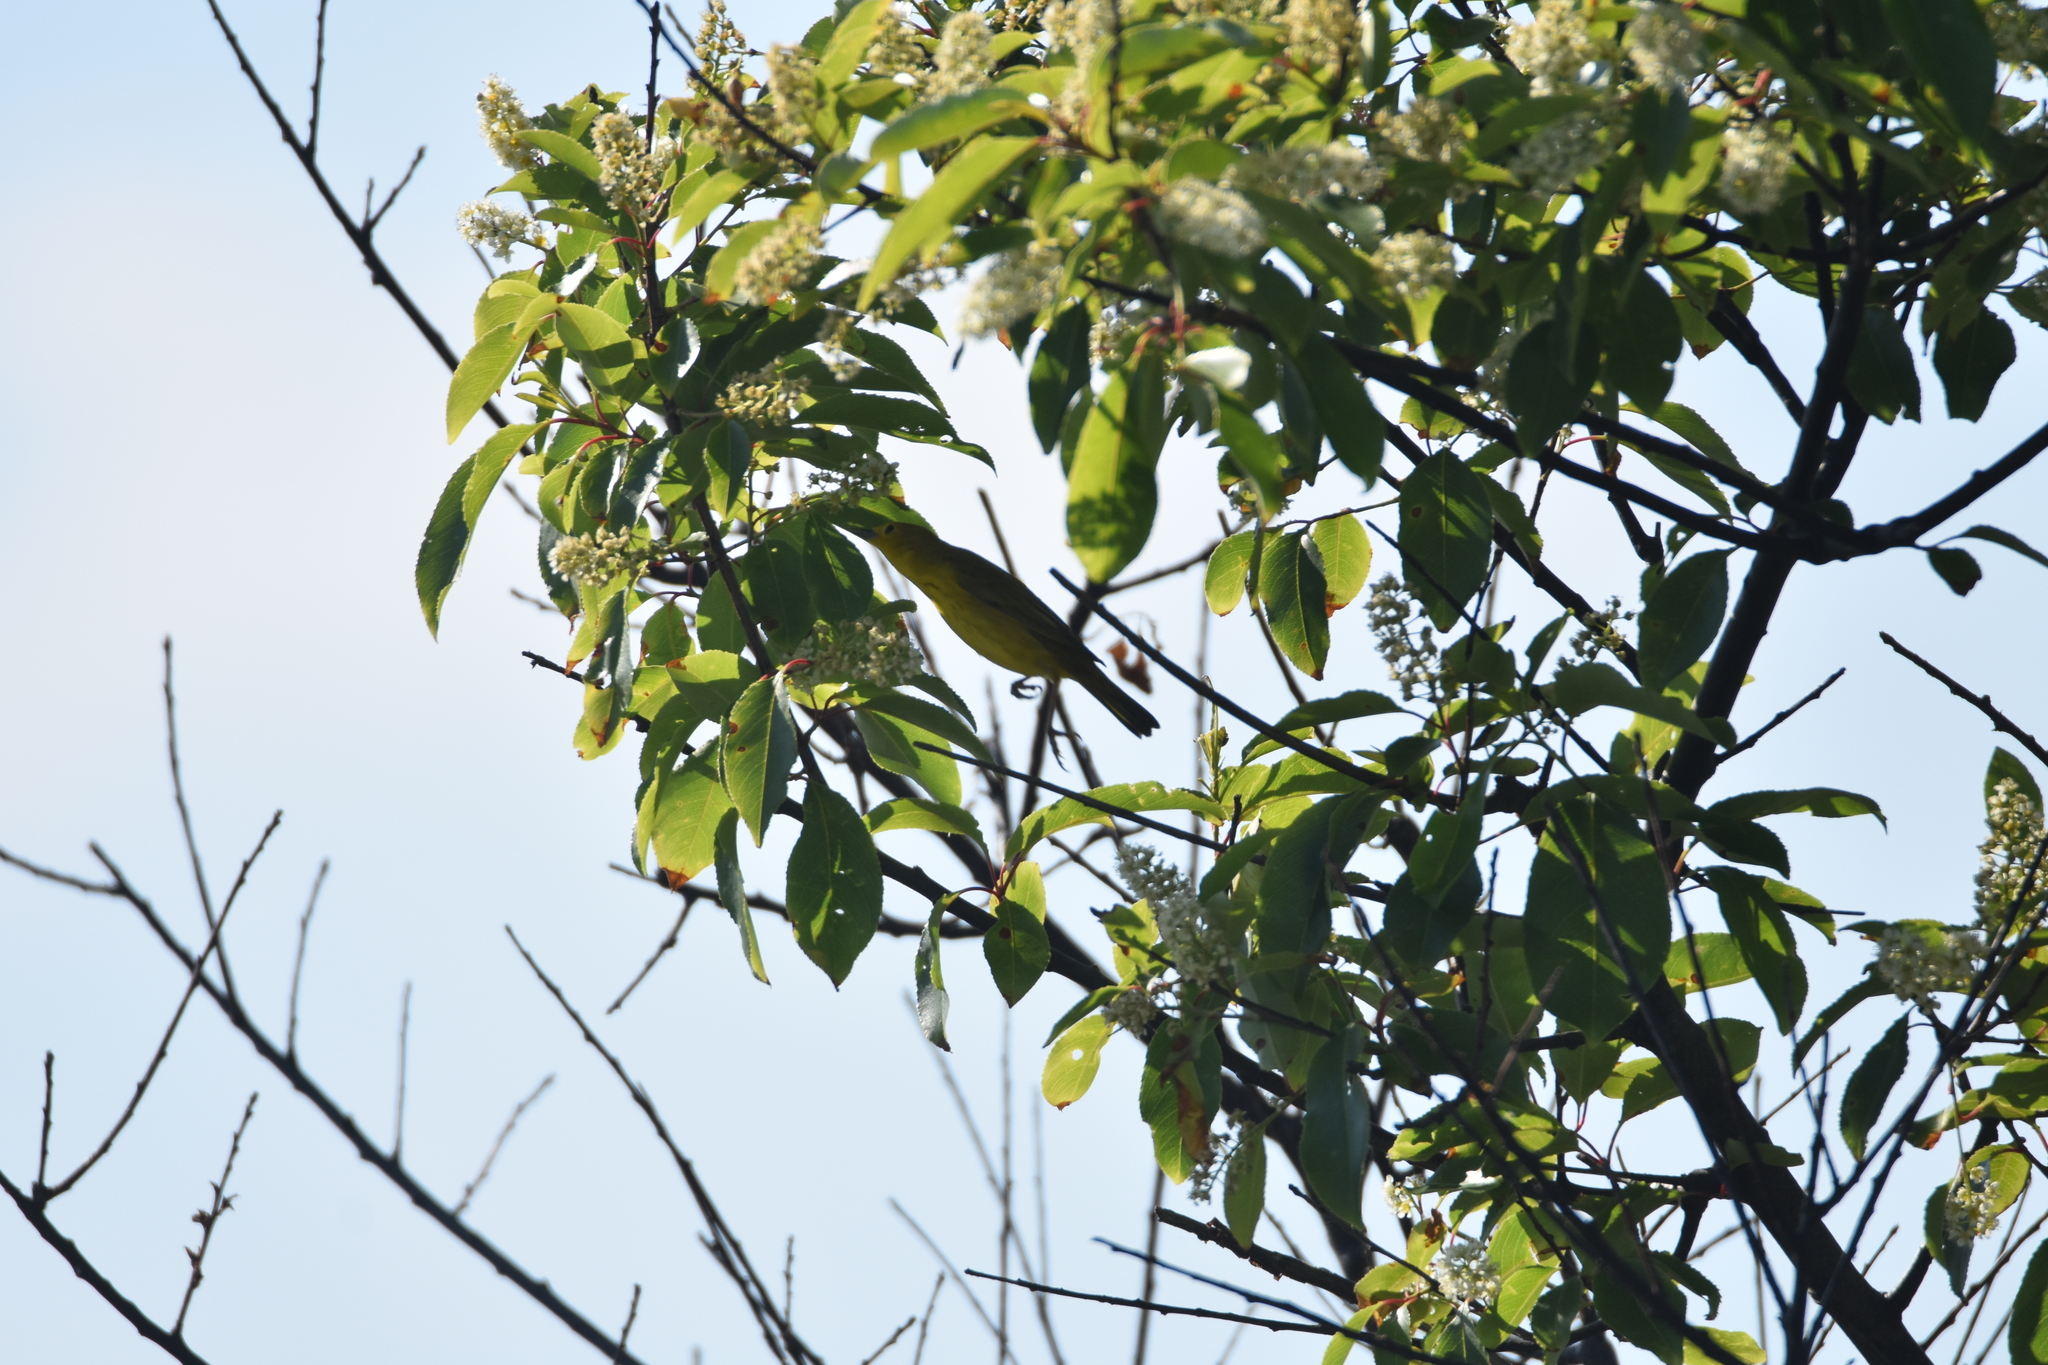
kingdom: Animalia
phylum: Chordata
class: Aves
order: Passeriformes
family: Parulidae
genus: Setophaga
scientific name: Setophaga petechia
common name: Yellow warbler
